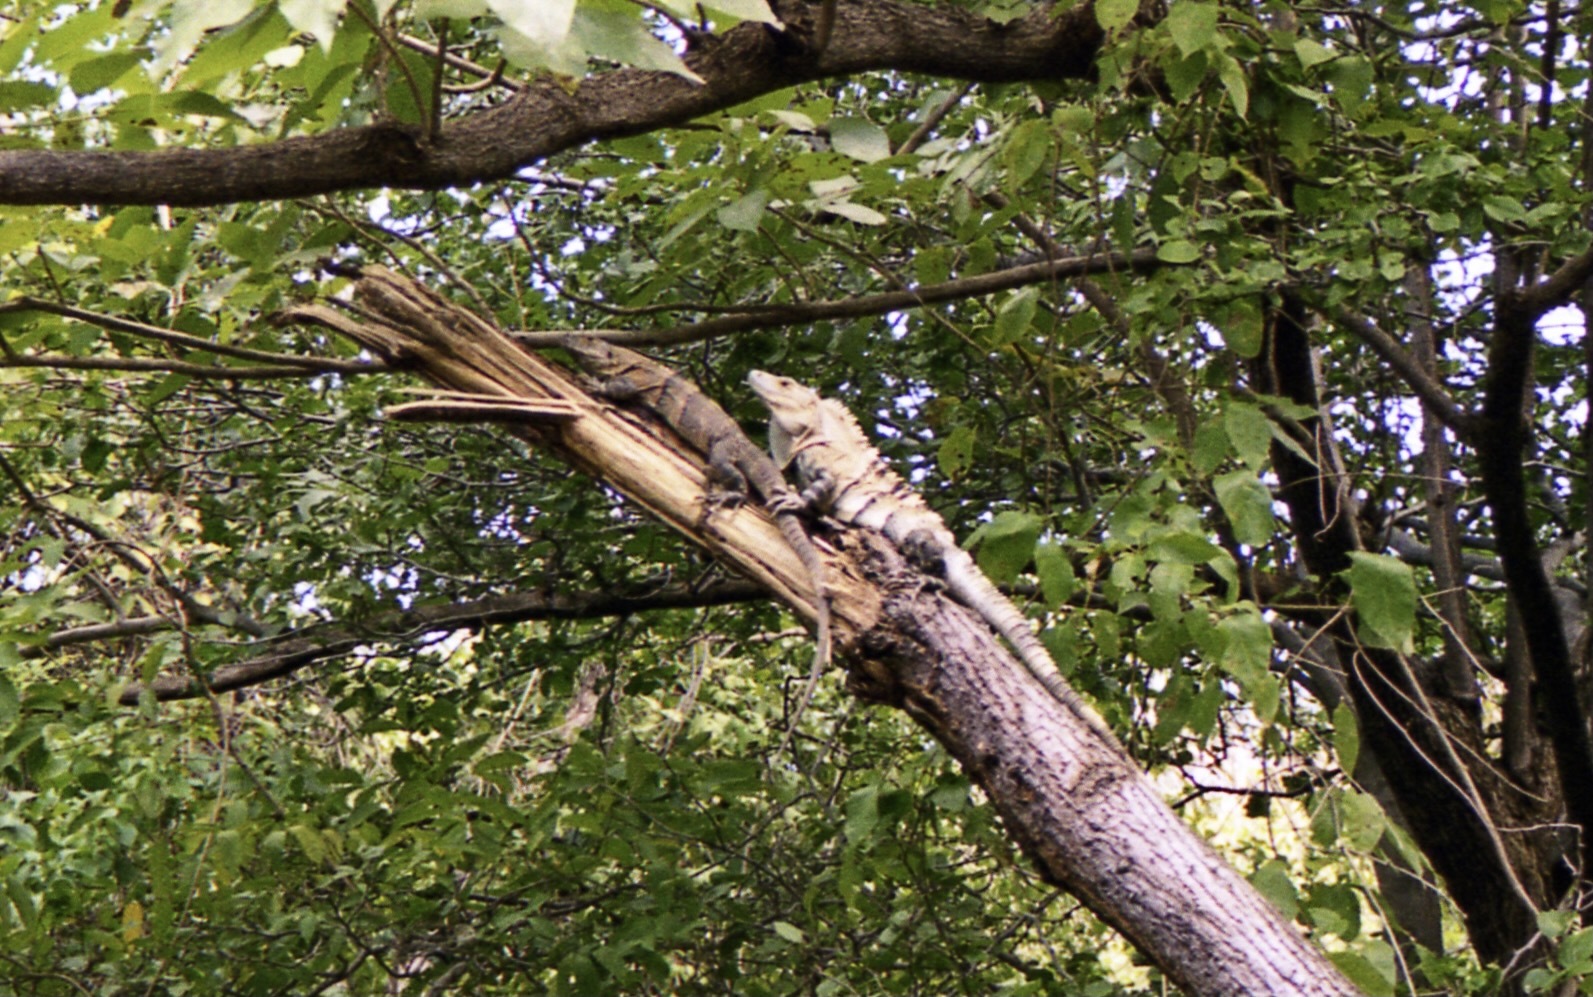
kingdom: Animalia
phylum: Chordata
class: Squamata
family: Iguanidae
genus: Ctenosaura
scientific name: Ctenosaura similis
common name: Black spiny-tailed iguana
